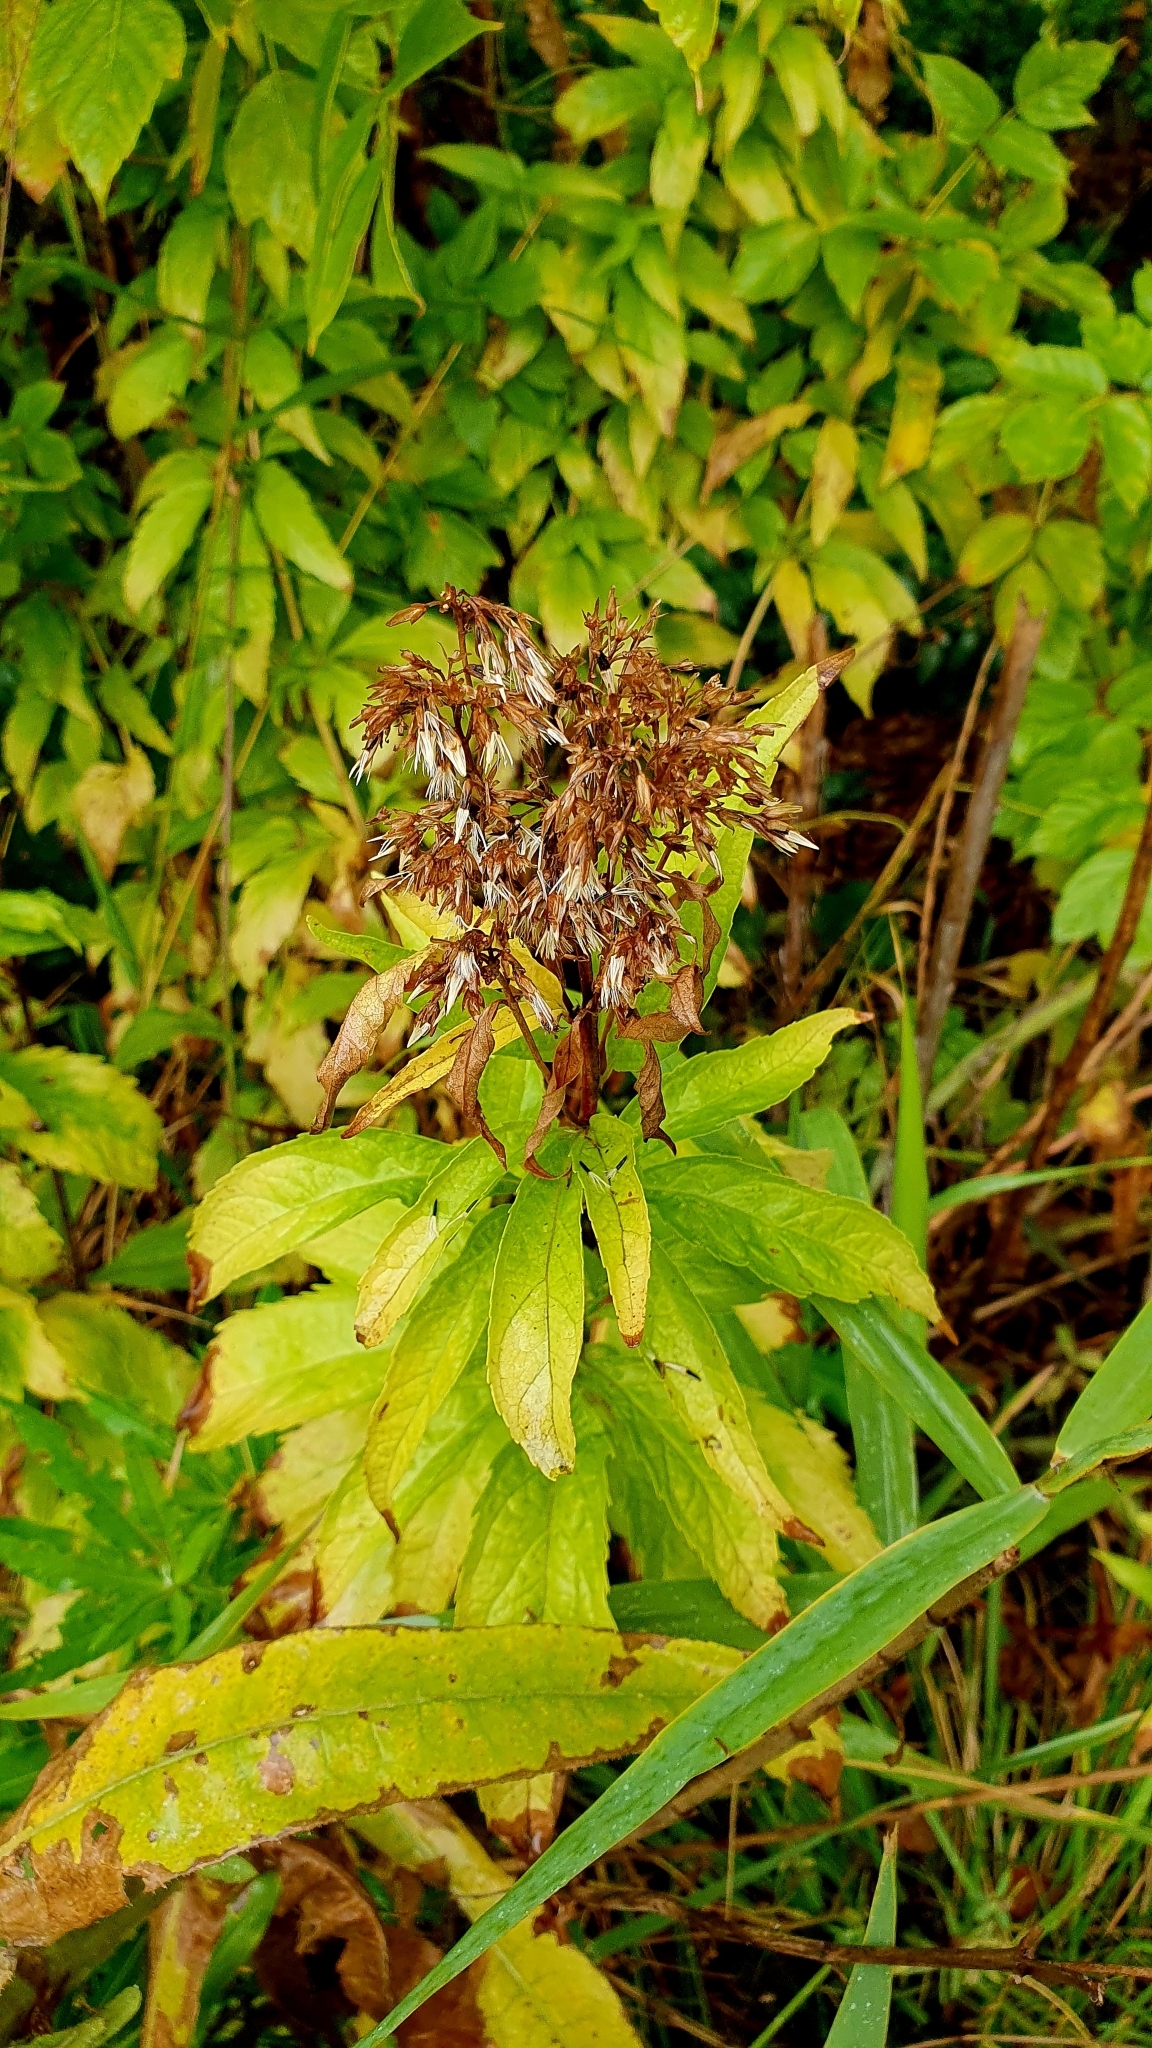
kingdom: Plantae
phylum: Tracheophyta
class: Magnoliopsida
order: Asterales
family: Asteraceae
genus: Eupatorium
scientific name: Eupatorium cannabinum
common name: Hemp-agrimony
